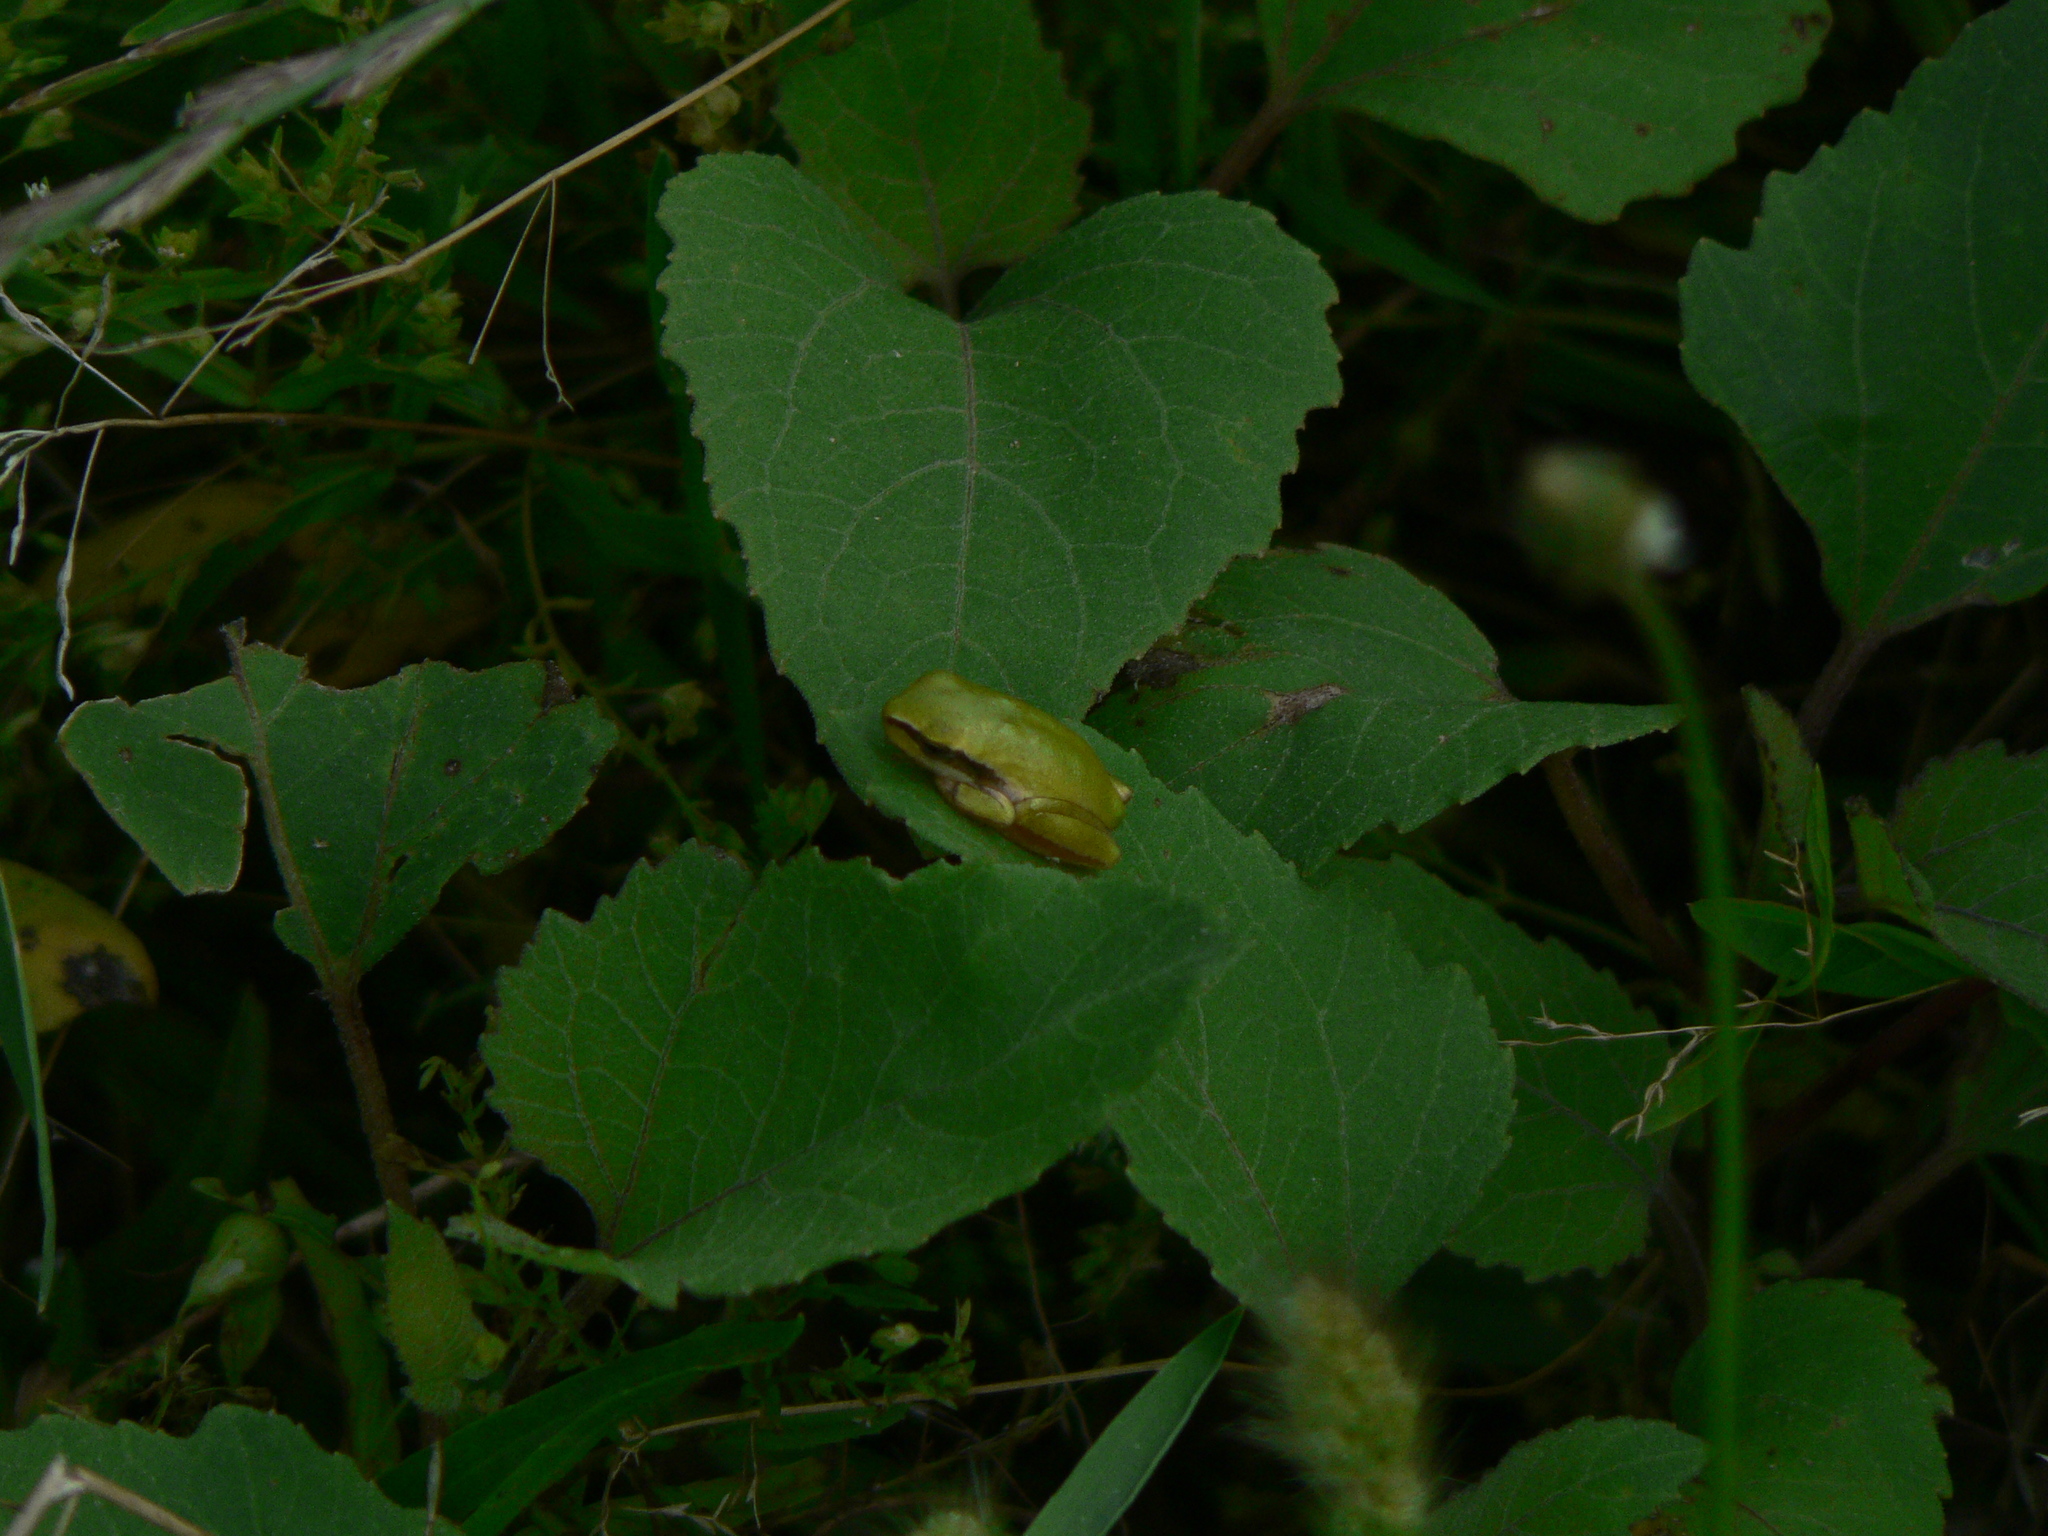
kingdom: Animalia
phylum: Chordata
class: Amphibia
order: Anura
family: Hylidae
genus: Hyla
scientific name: Hyla meridionalis
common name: Stripeless tree frog
